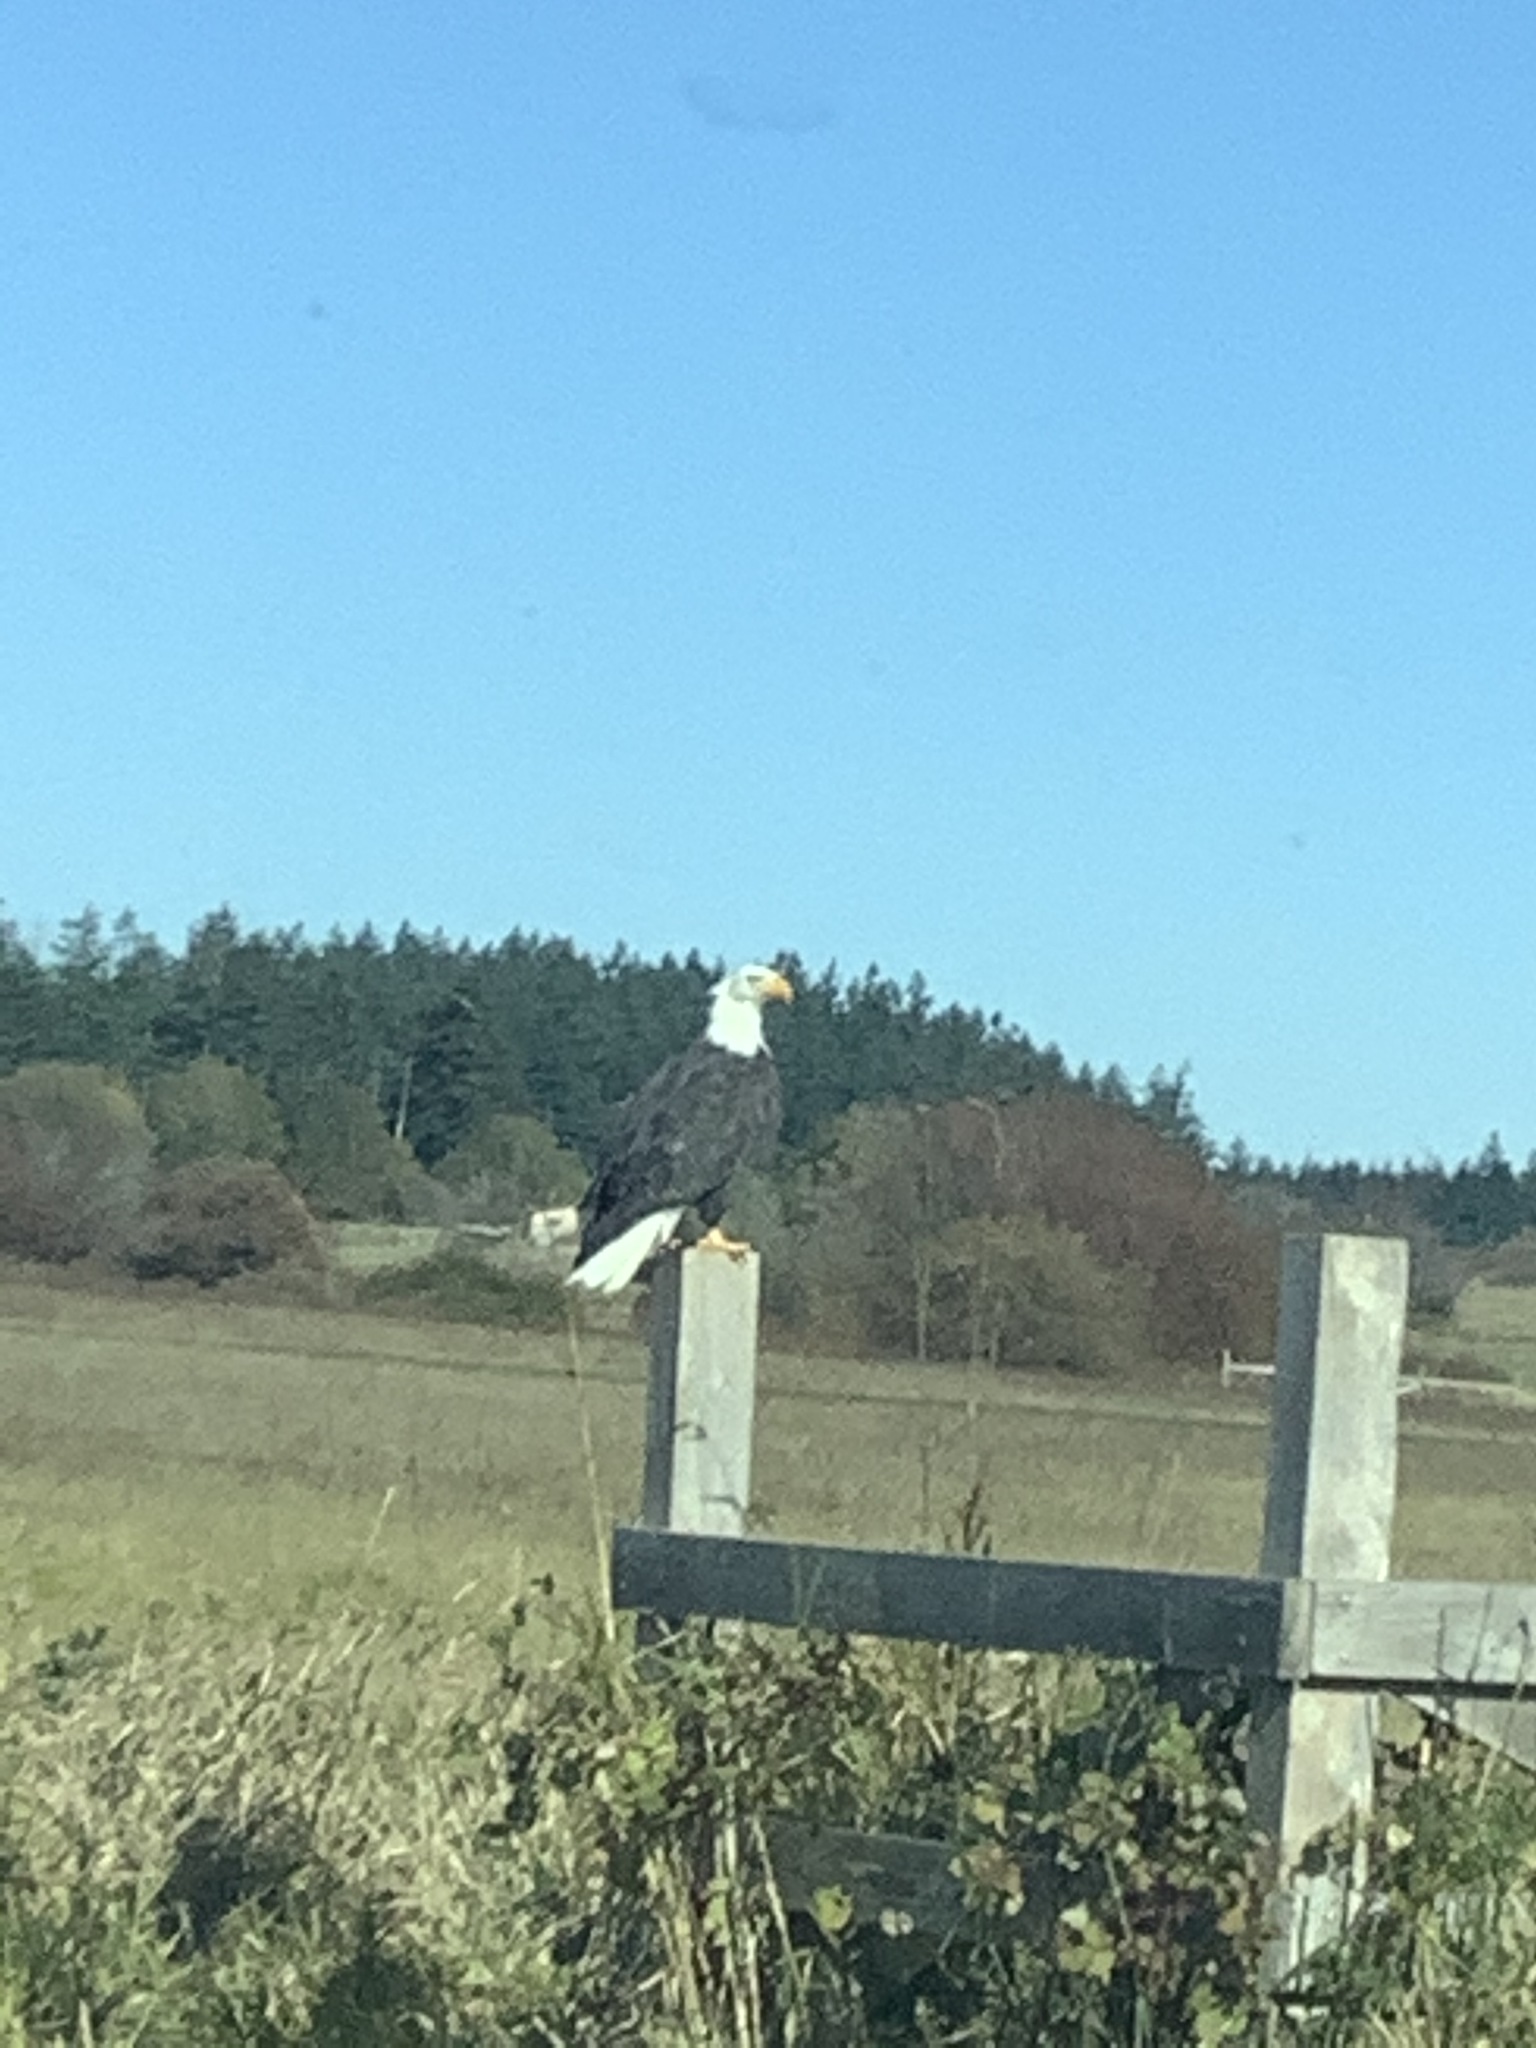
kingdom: Animalia
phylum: Chordata
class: Aves
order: Accipitriformes
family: Accipitridae
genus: Haliaeetus
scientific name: Haliaeetus leucocephalus
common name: Bald eagle
